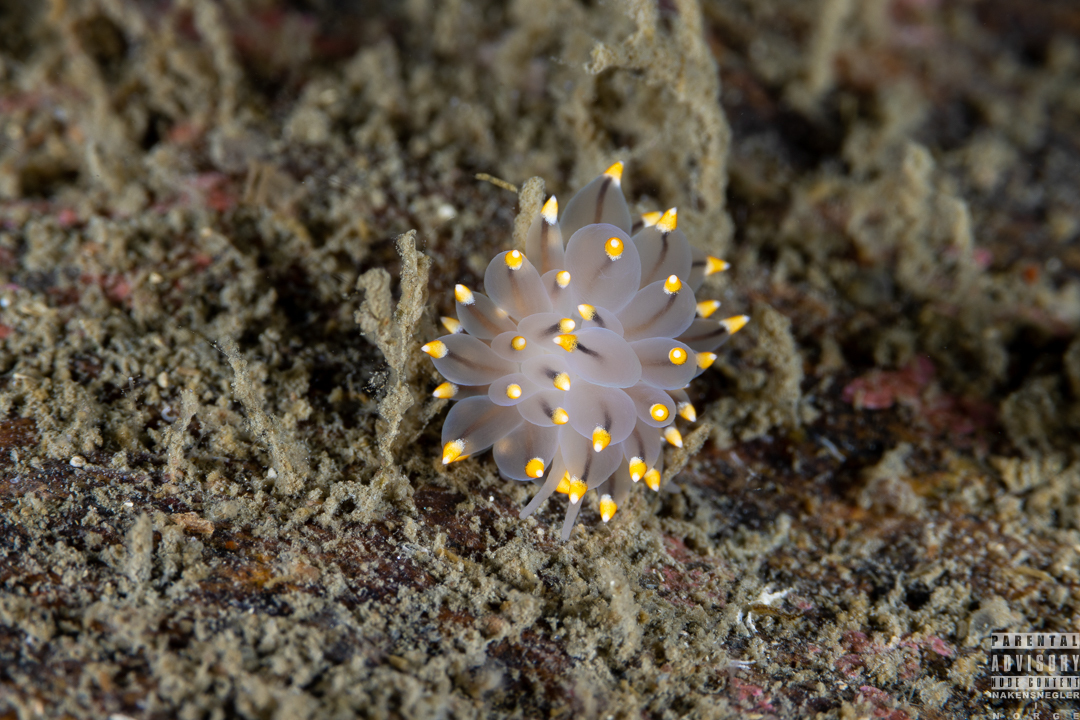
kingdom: Animalia
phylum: Mollusca
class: Gastropoda
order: Nudibranchia
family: Eubranchidae
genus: Eubranchus
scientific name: Eubranchus tricolor
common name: Painted balloon aeolis
